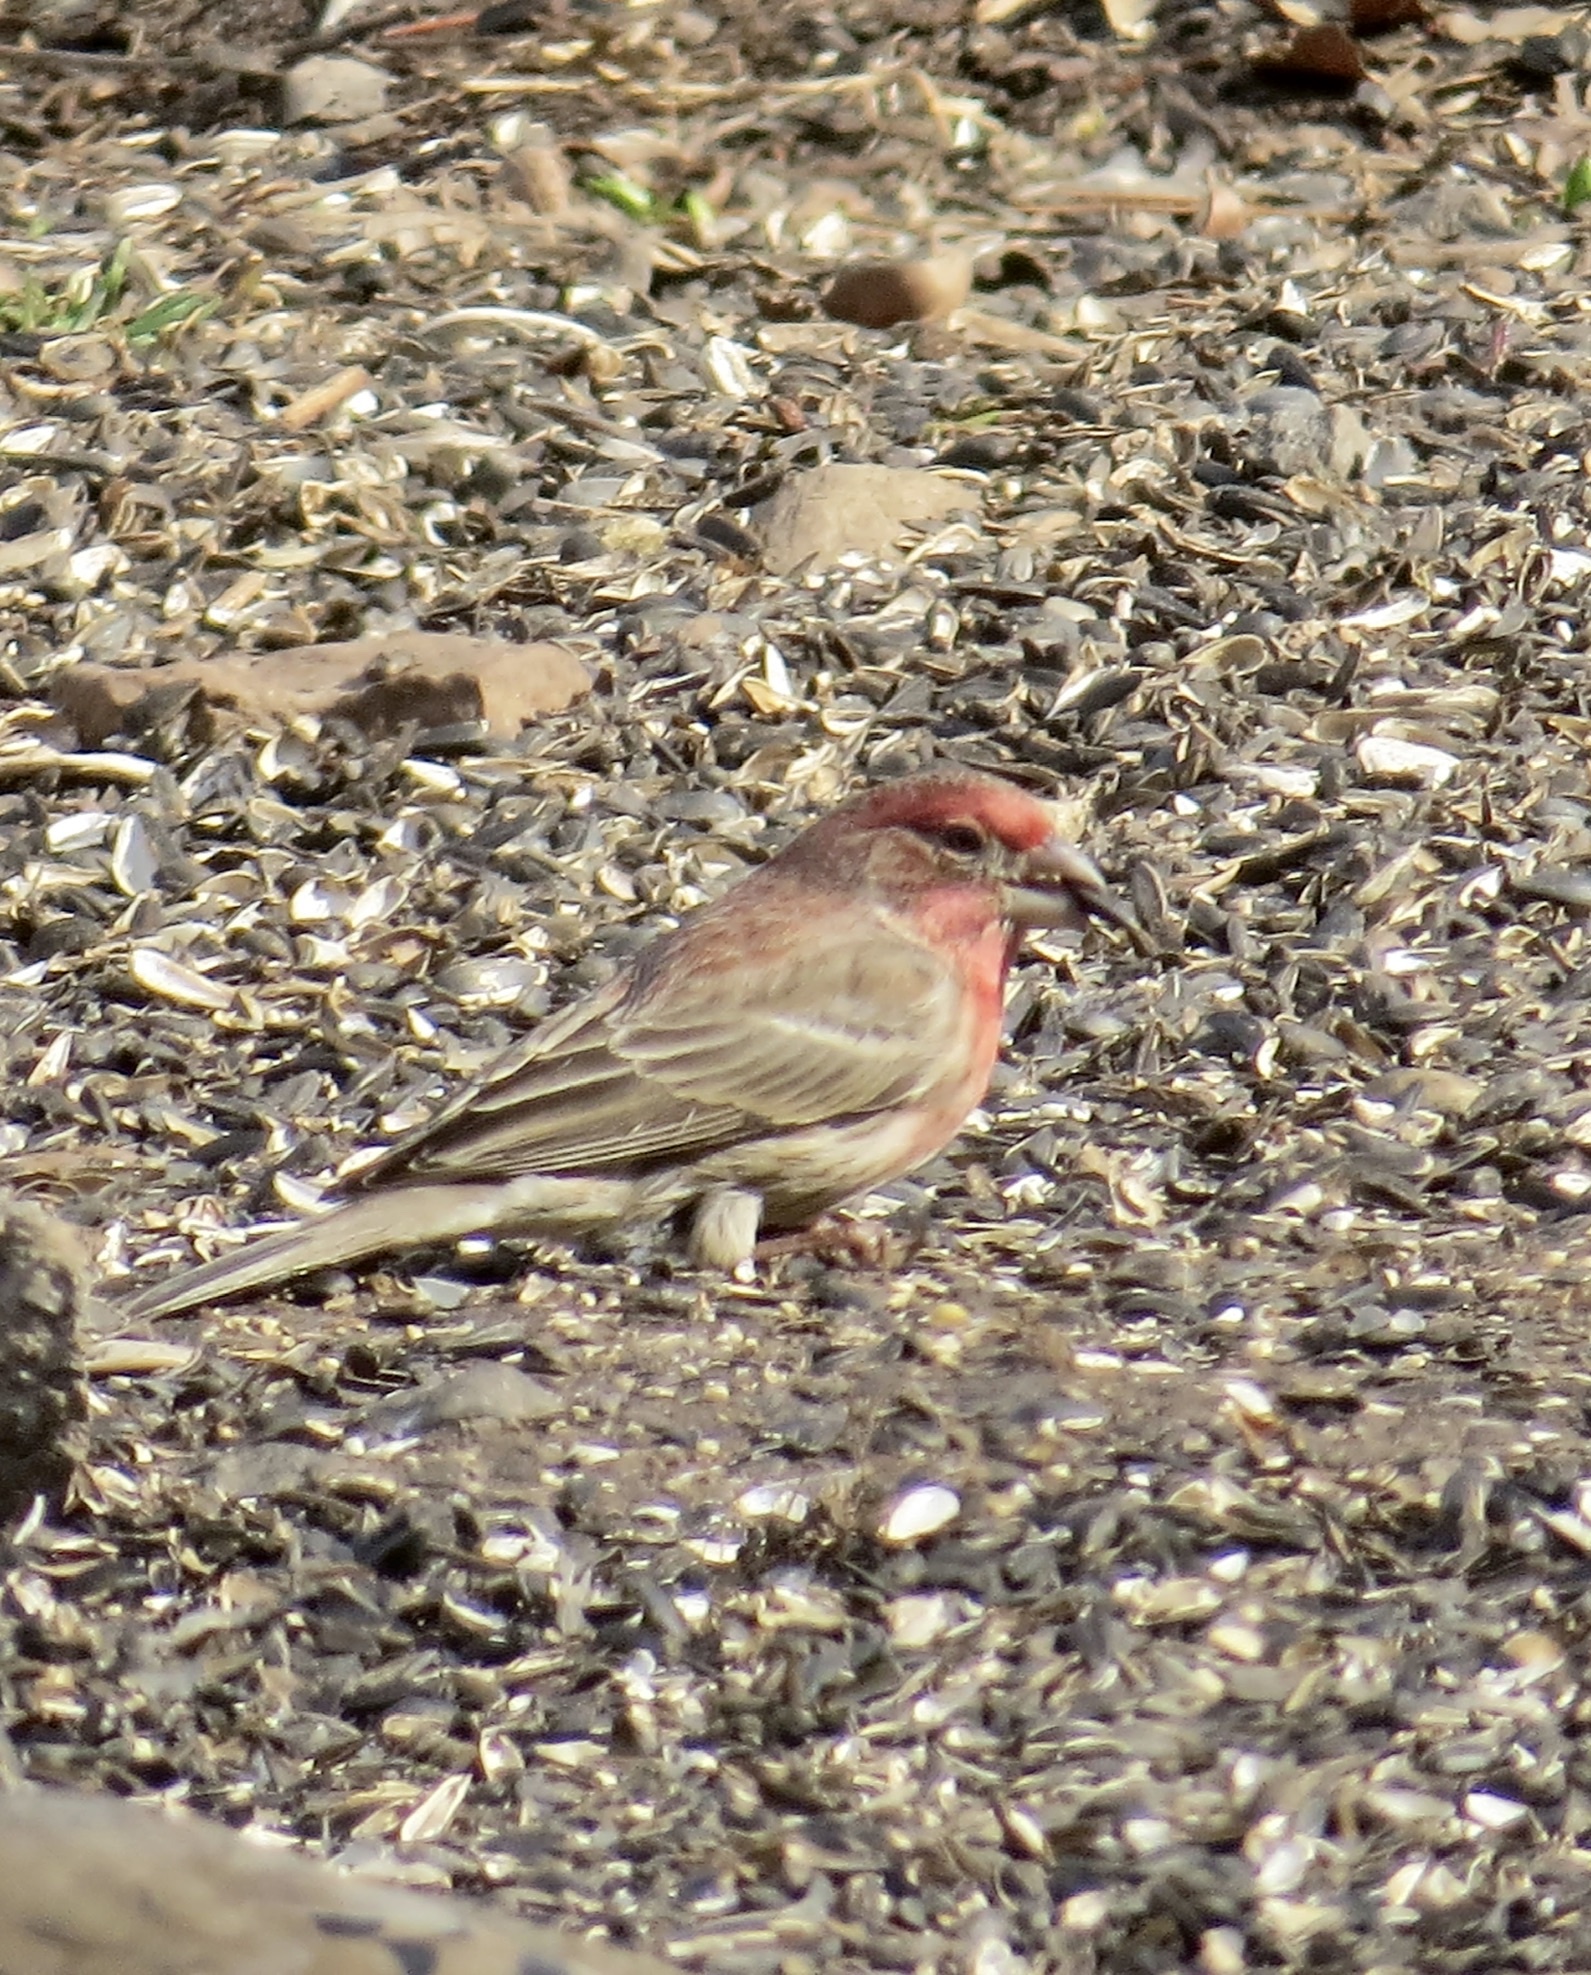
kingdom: Animalia
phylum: Chordata
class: Aves
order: Passeriformes
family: Fringillidae
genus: Haemorhous
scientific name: Haemorhous mexicanus
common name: House finch
